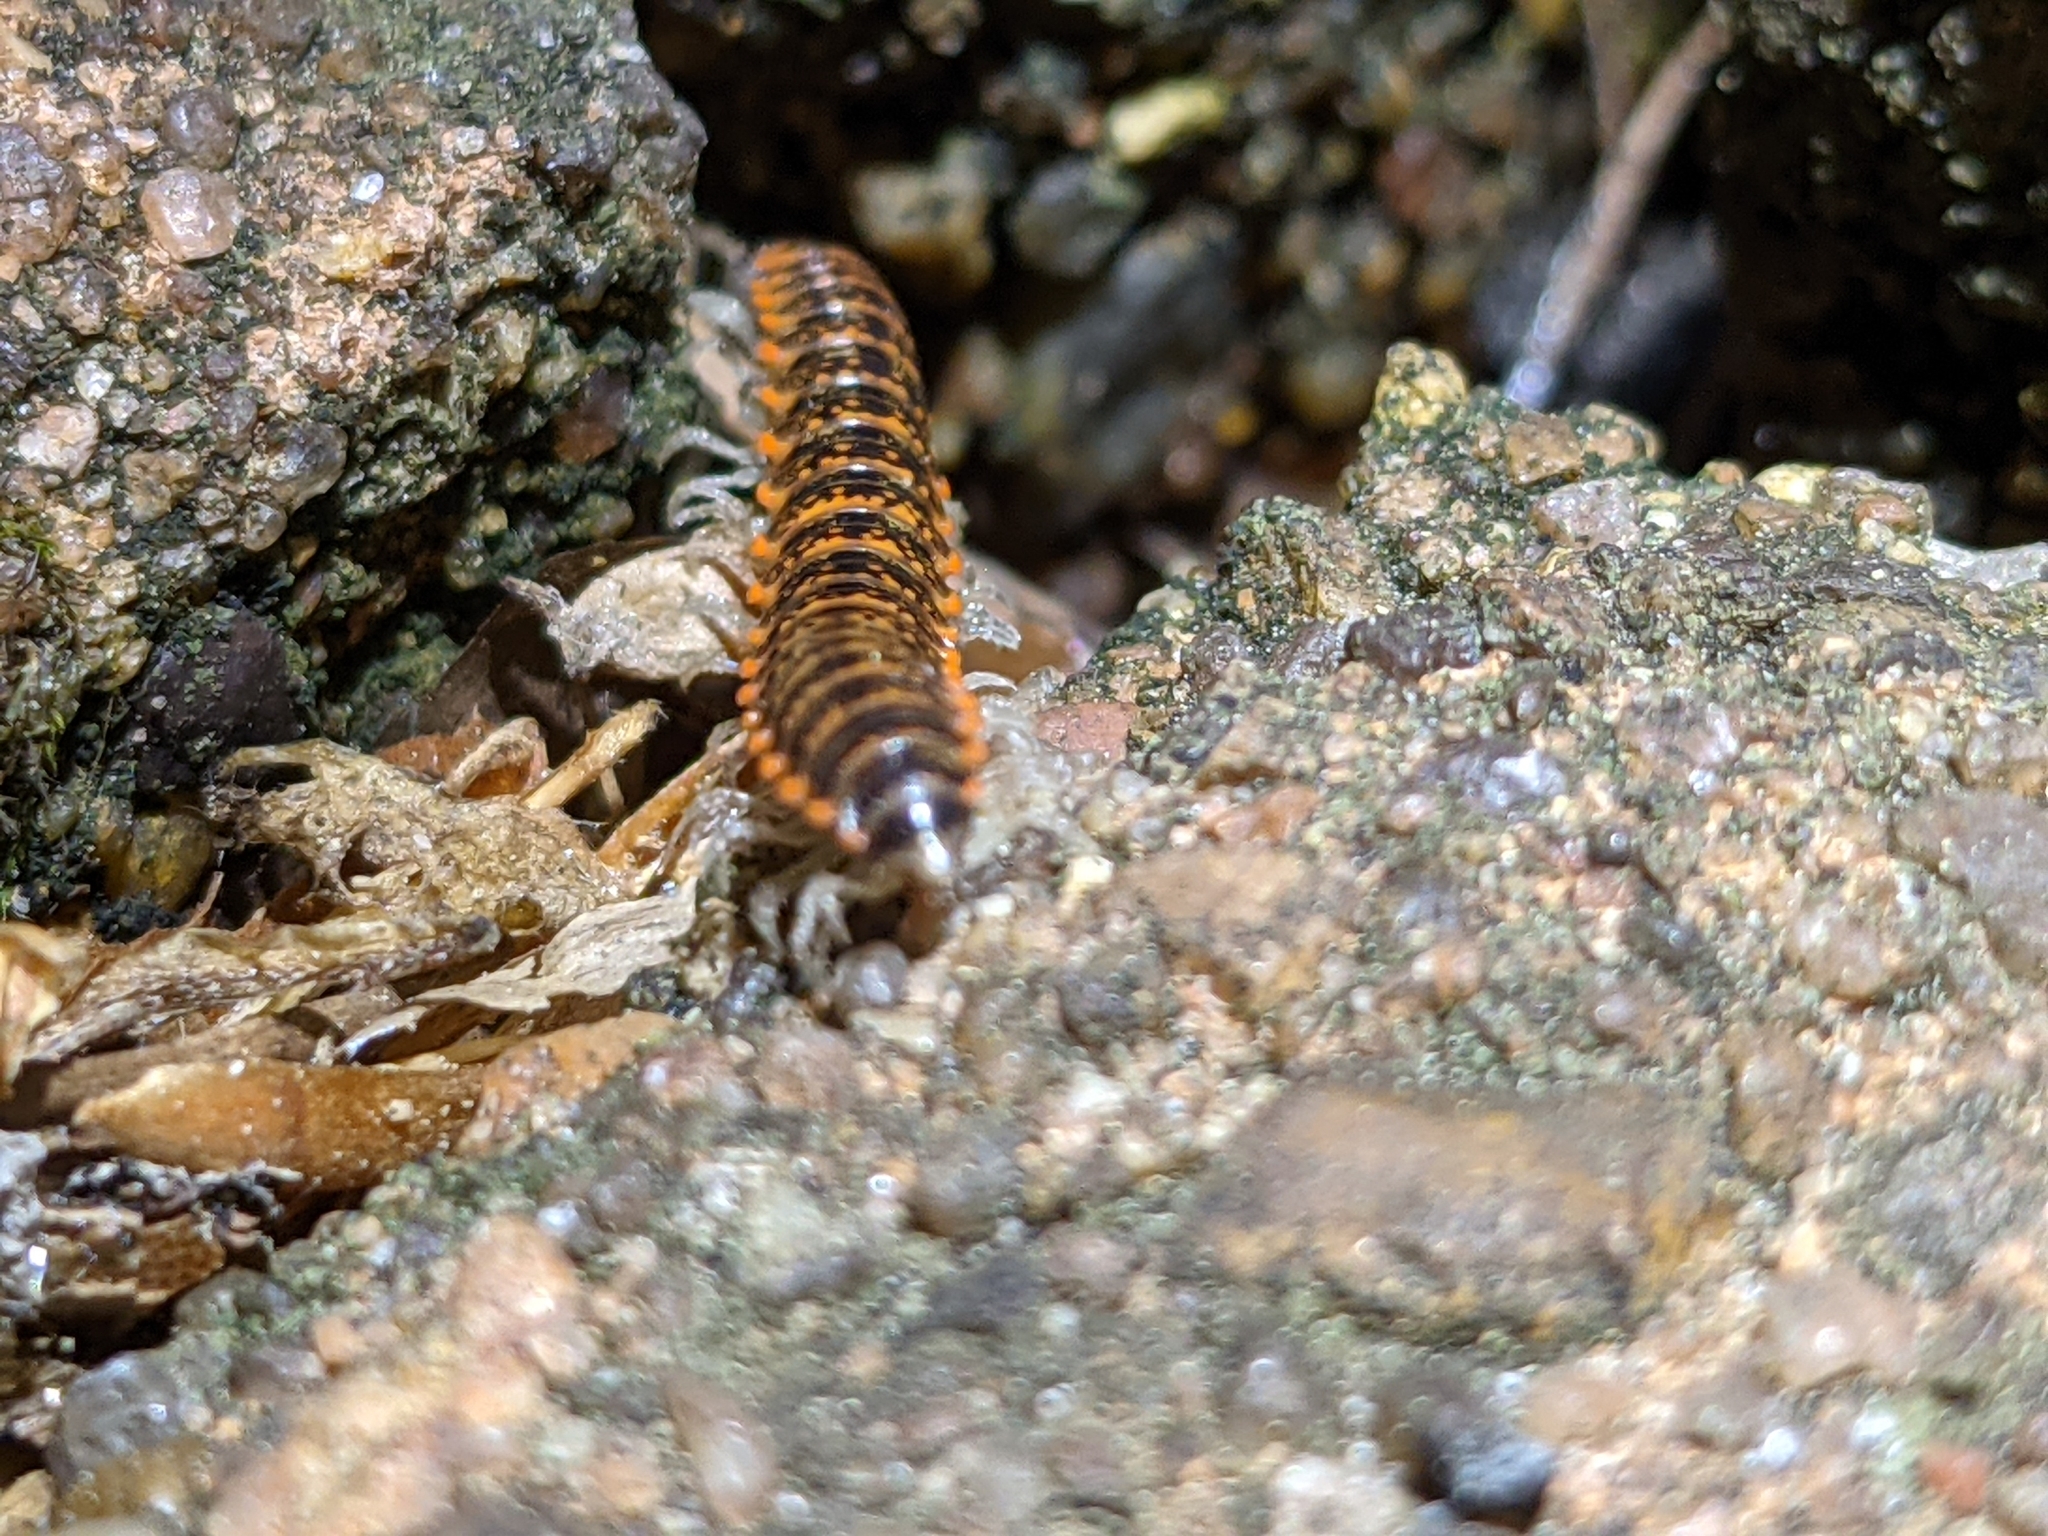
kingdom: Animalia
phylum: Arthropoda
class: Diplopoda
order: Polydesmida
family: Xystodesmidae
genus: Eurymerodesmus
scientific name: Eurymerodesmus
